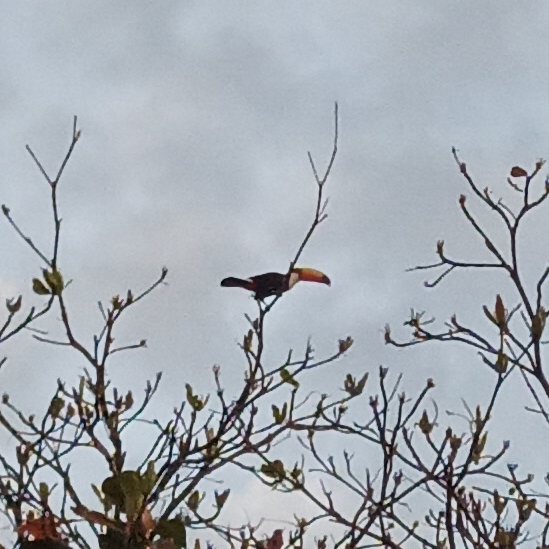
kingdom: Animalia
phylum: Chordata
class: Aves
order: Piciformes
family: Ramphastidae
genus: Ramphastos
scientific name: Ramphastos toco
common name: Toco toucan
